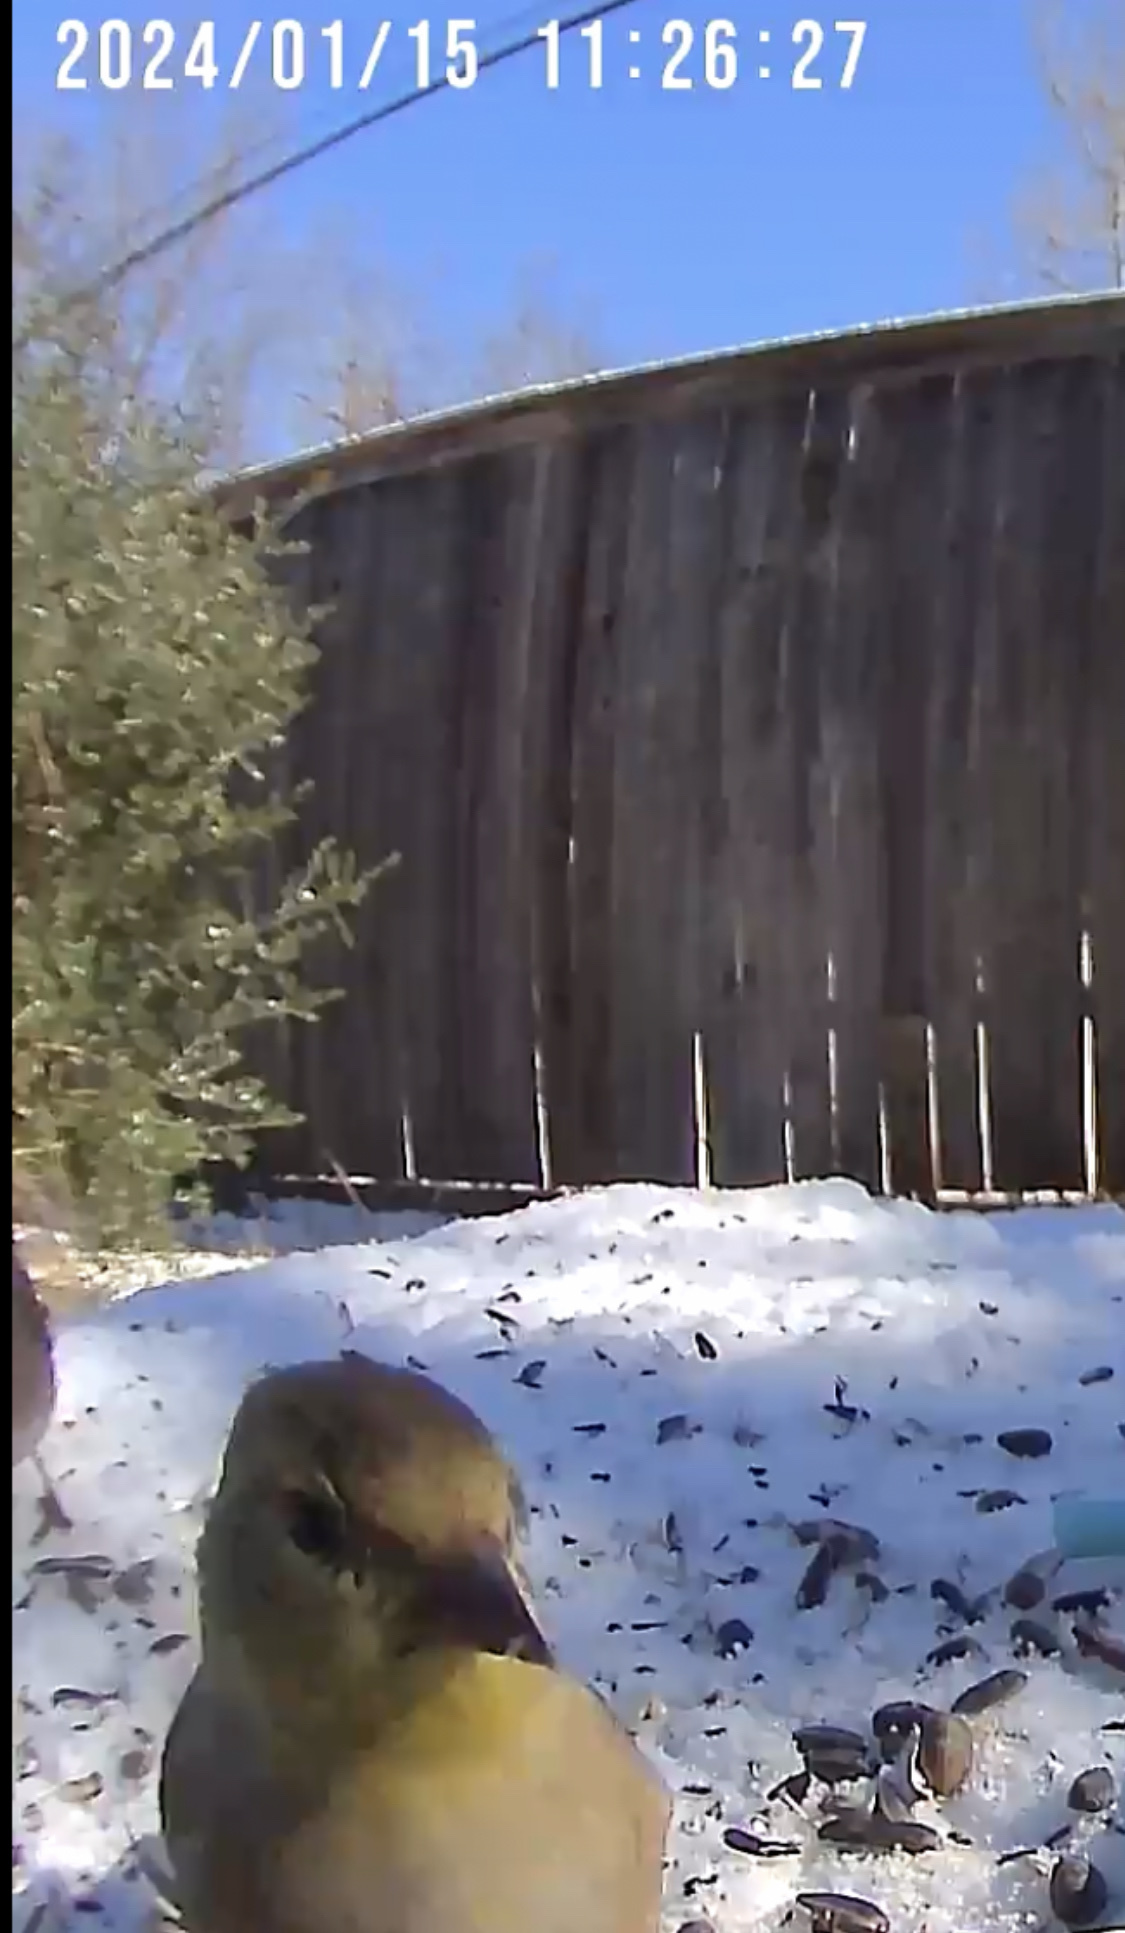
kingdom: Animalia
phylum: Chordata
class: Aves
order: Passeriformes
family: Fringillidae
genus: Spinus
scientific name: Spinus tristis
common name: American goldfinch
